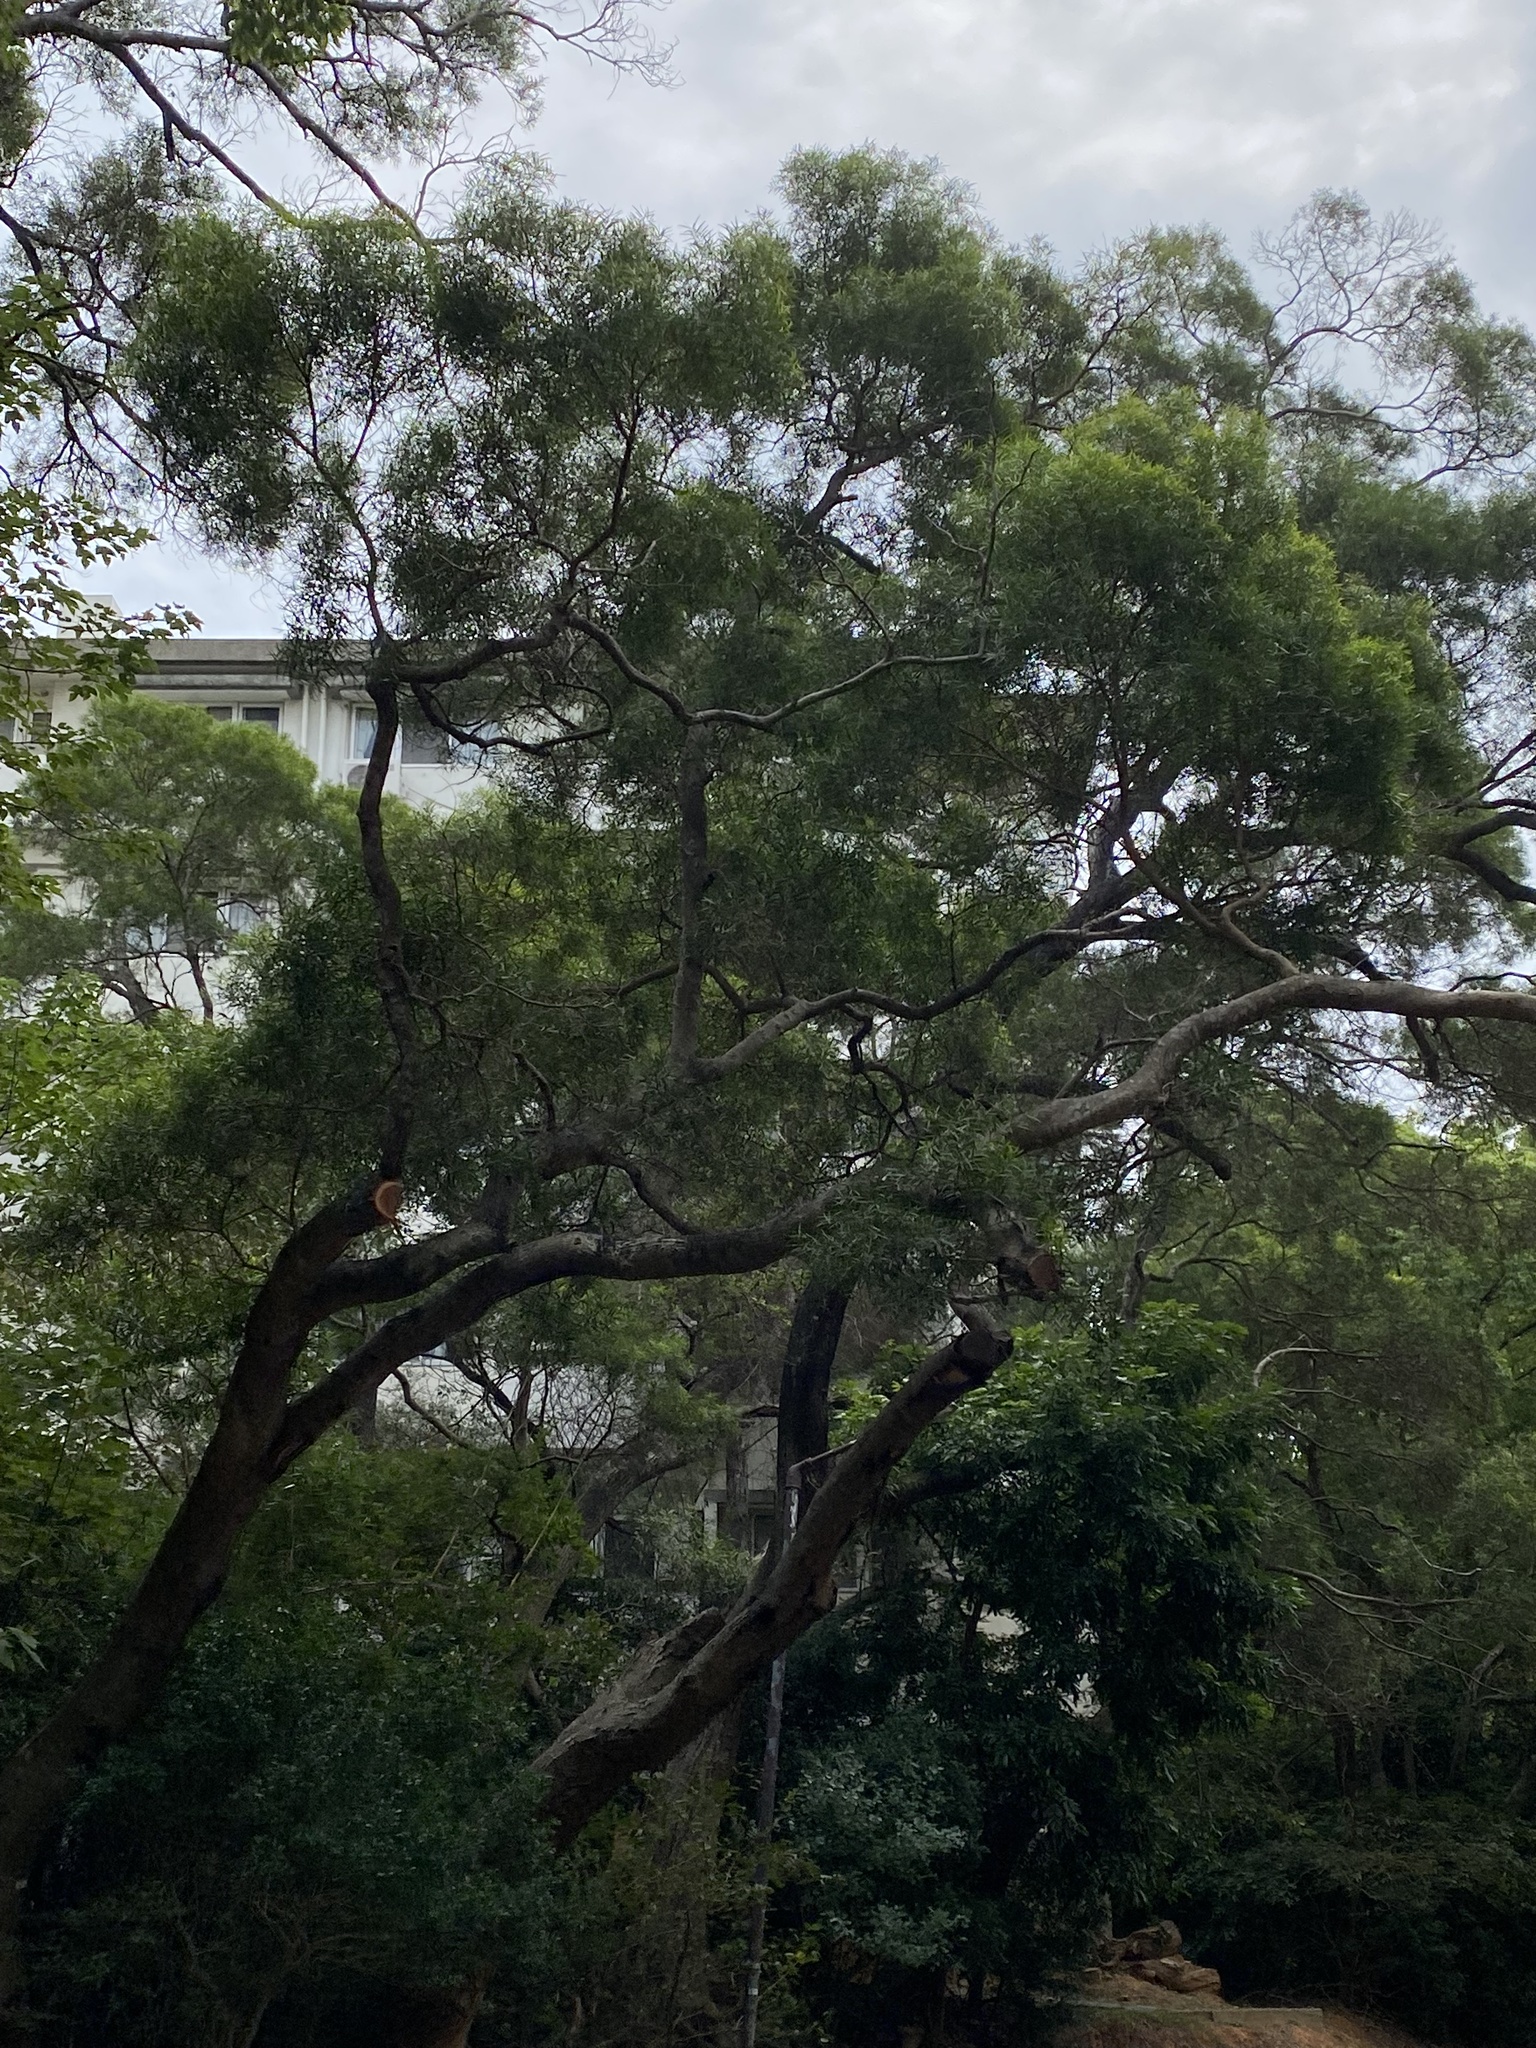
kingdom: Plantae
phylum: Tracheophyta
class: Magnoliopsida
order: Fabales
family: Fabaceae
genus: Acacia
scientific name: Acacia confusa
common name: Formosan koa
